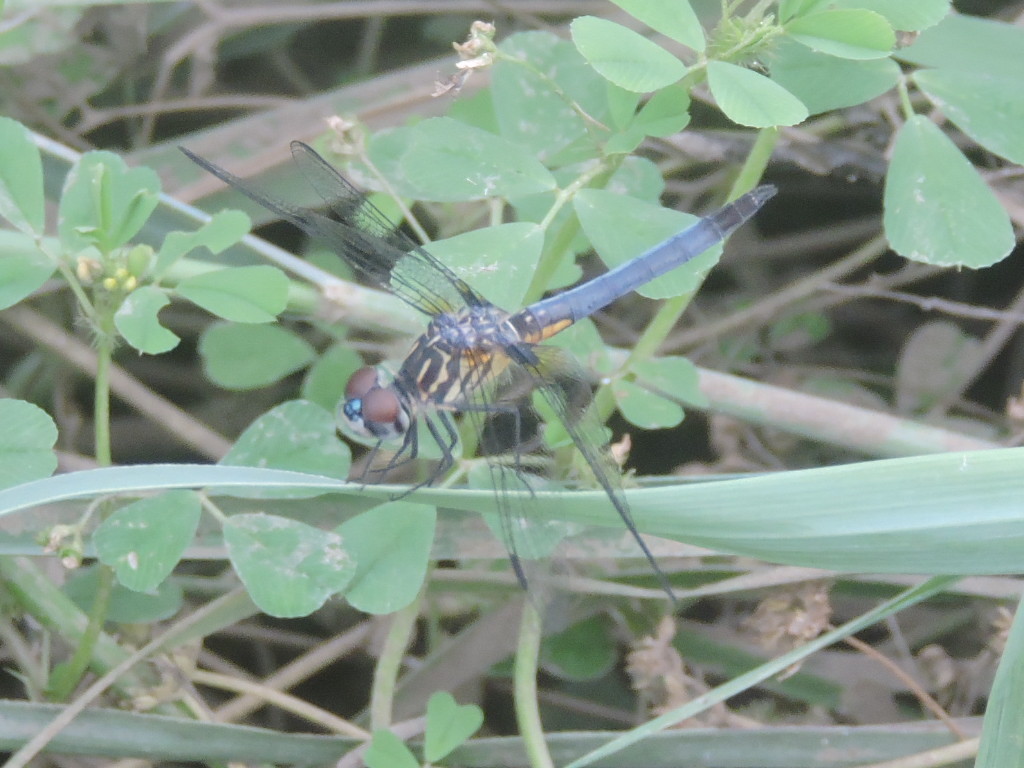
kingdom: Animalia
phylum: Arthropoda
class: Insecta
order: Odonata
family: Libellulidae
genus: Pachydiplax
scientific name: Pachydiplax longipennis
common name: Blue dasher
